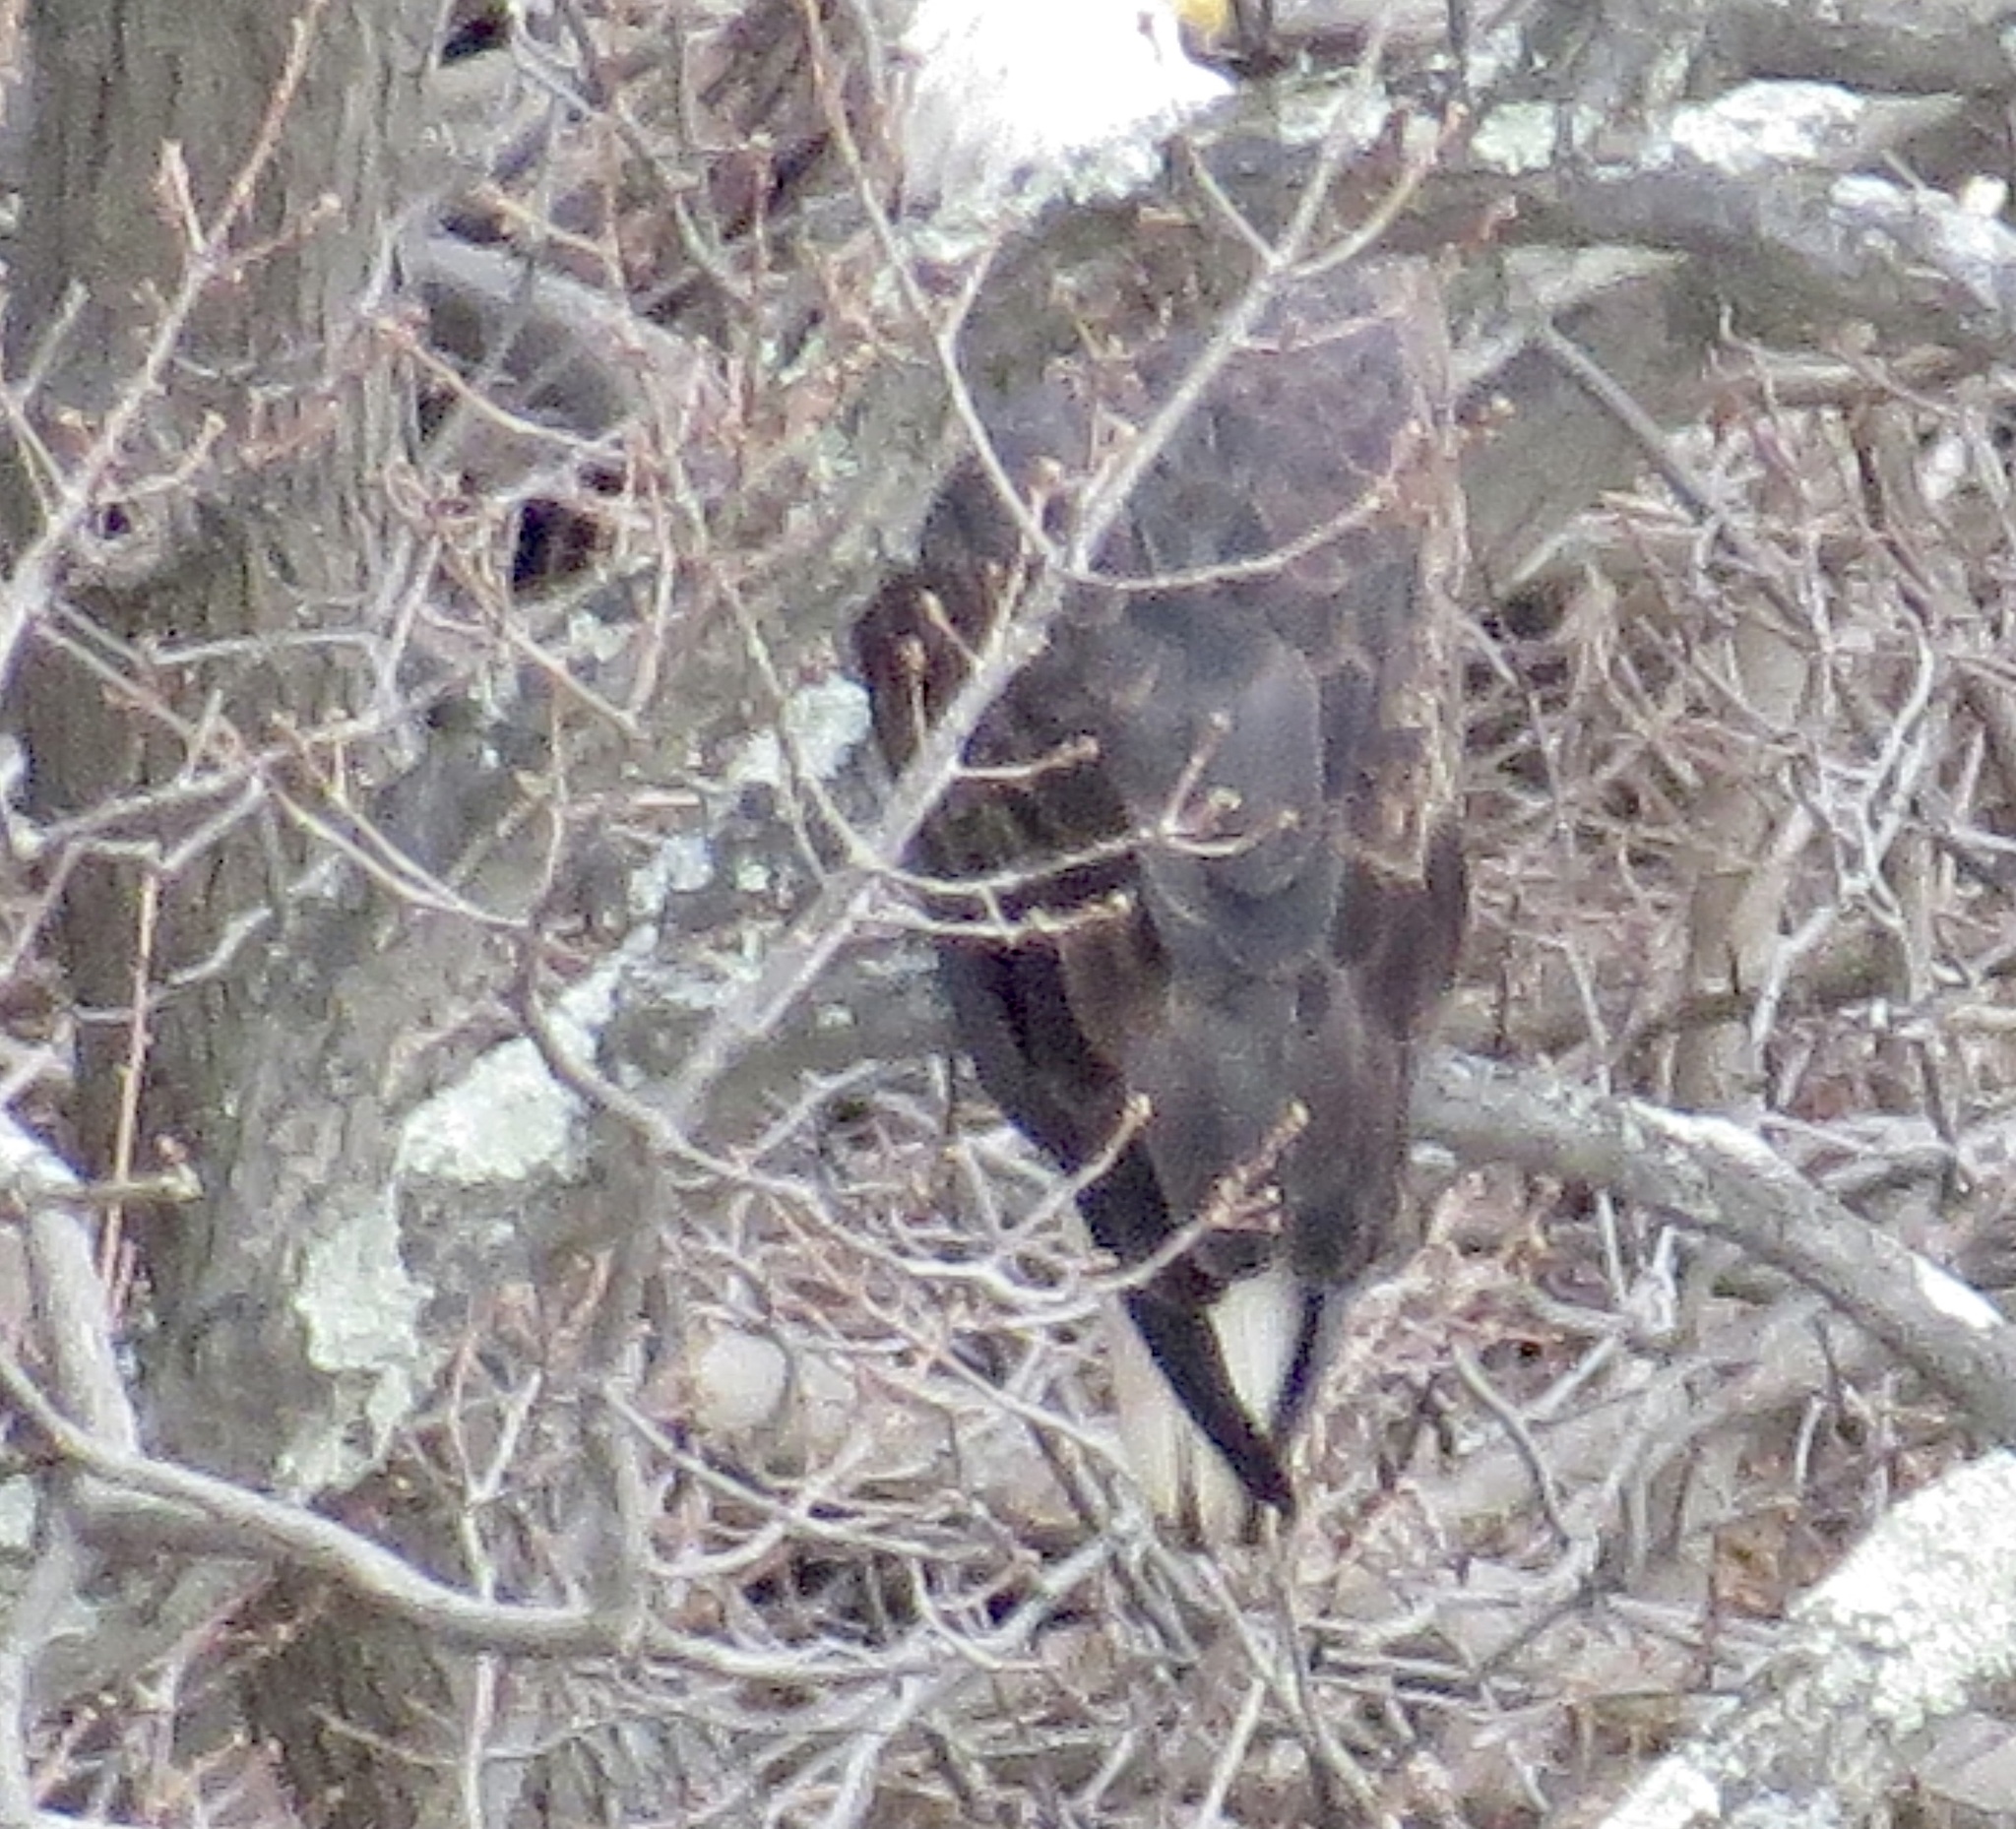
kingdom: Animalia
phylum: Chordata
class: Aves
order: Accipitriformes
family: Accipitridae
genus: Haliaeetus
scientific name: Haliaeetus leucocephalus
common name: Bald eagle
